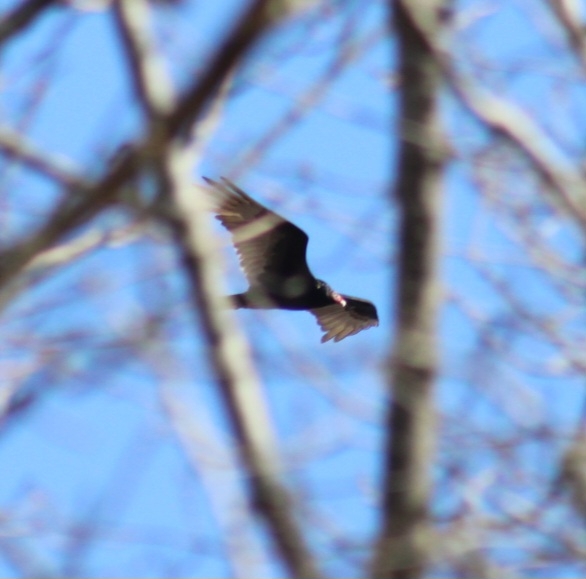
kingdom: Animalia
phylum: Chordata
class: Aves
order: Accipitriformes
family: Cathartidae
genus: Cathartes
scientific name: Cathartes aura
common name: Turkey vulture
